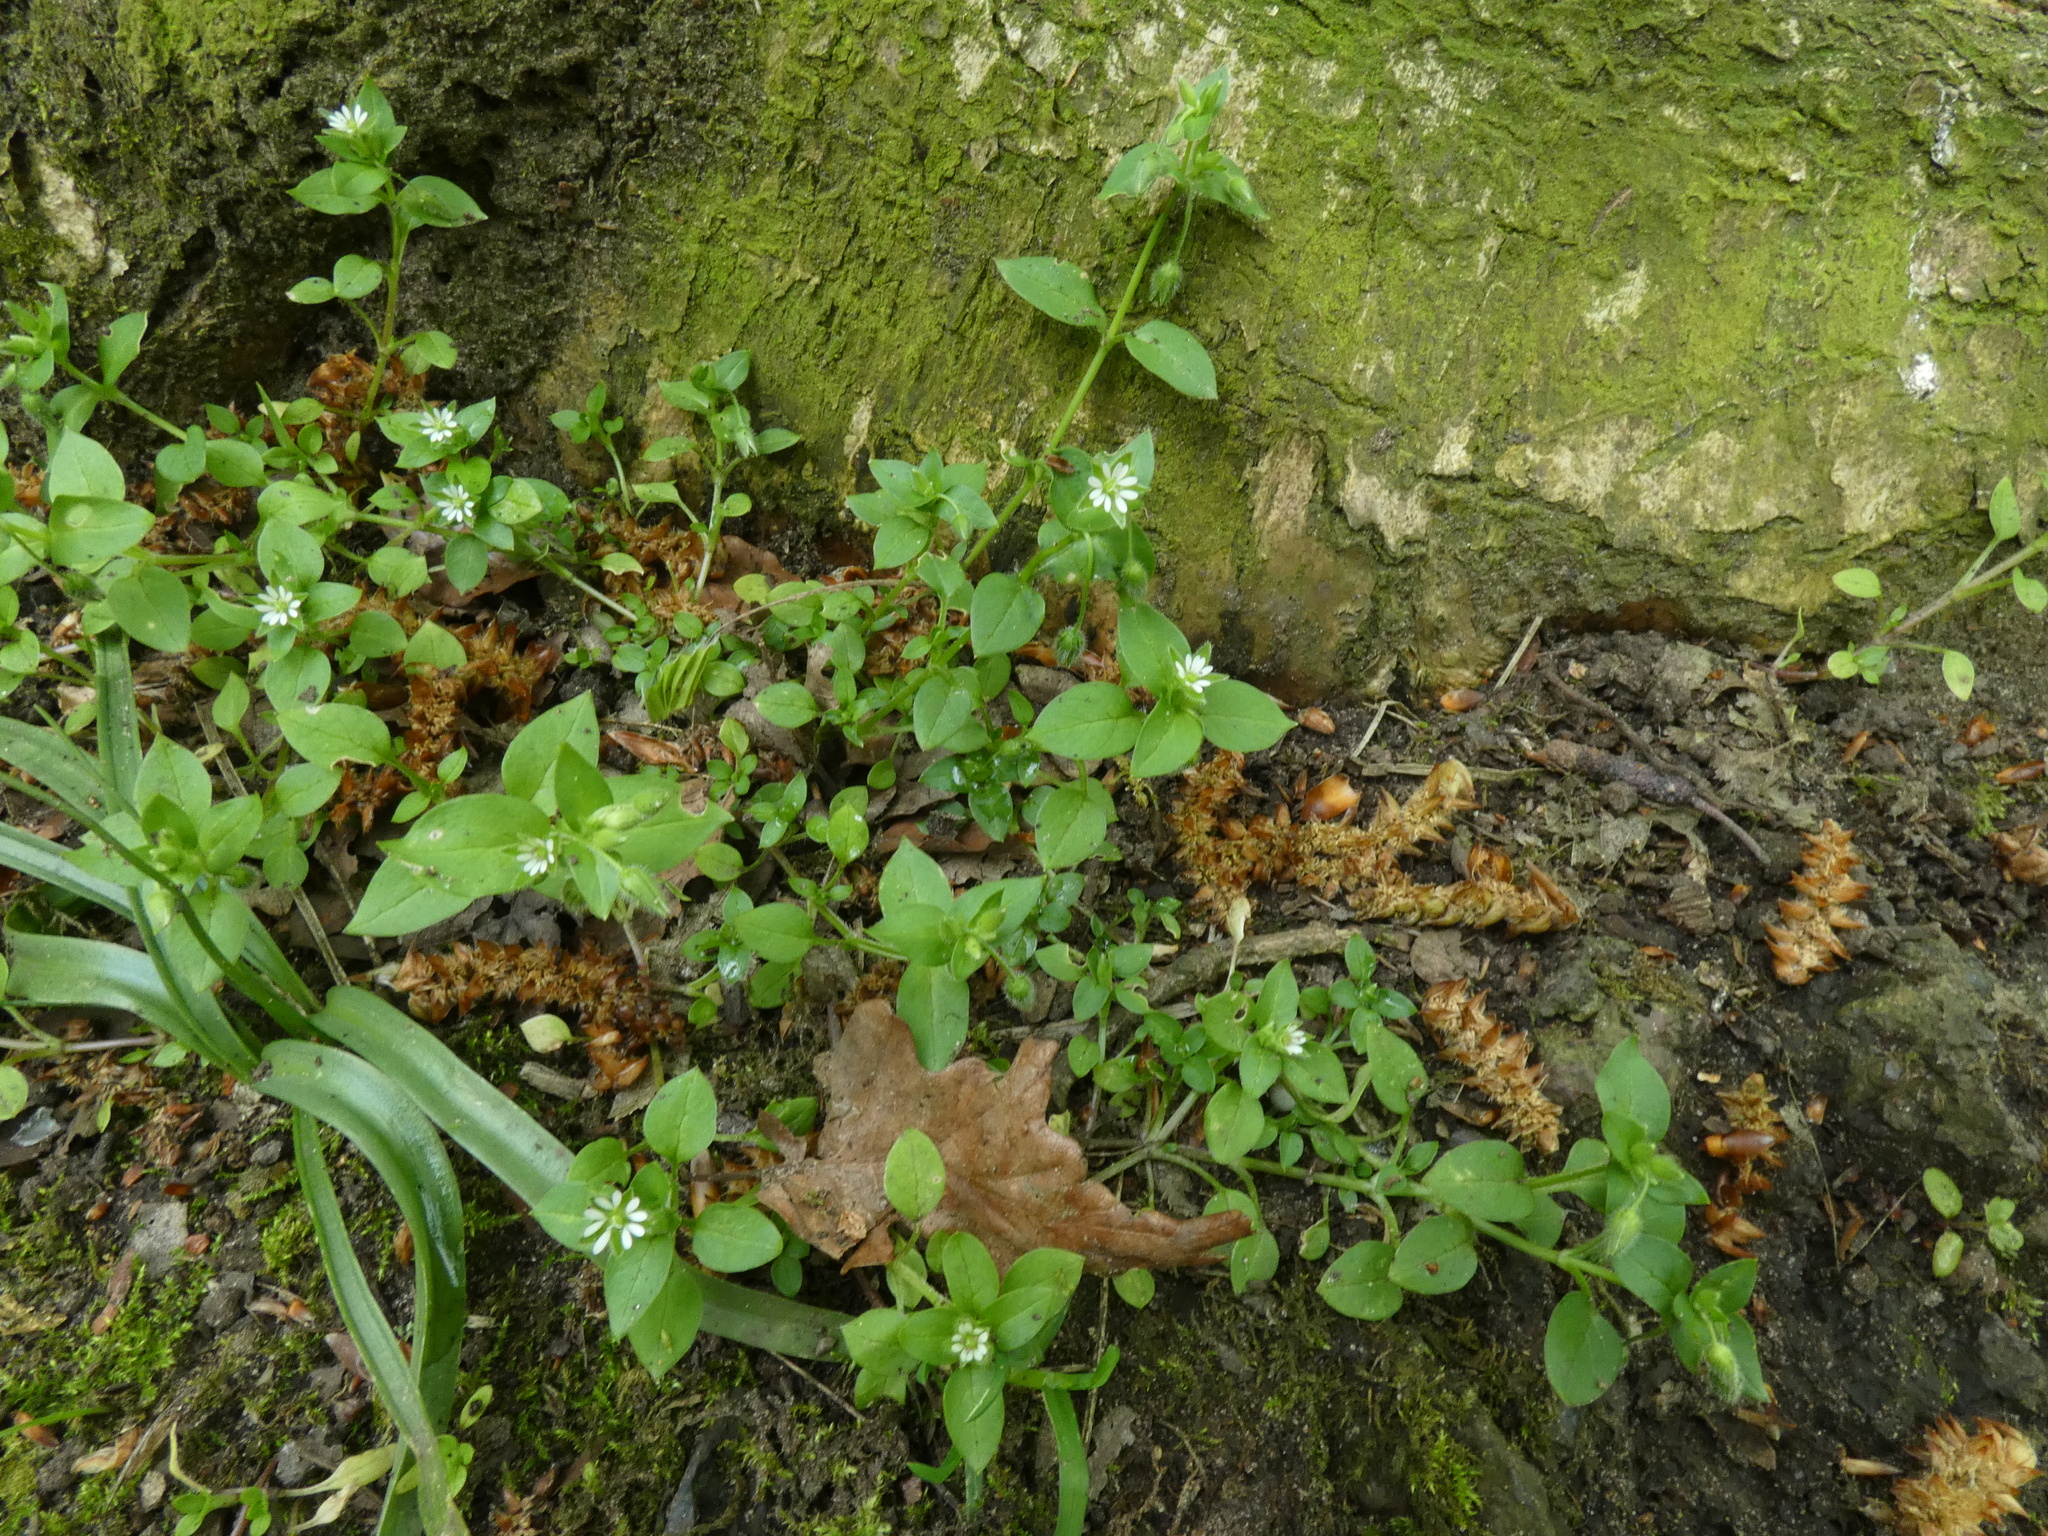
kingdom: Plantae
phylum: Tracheophyta
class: Magnoliopsida
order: Caryophyllales
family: Caryophyllaceae
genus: Stellaria
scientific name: Stellaria media
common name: Common chickweed
